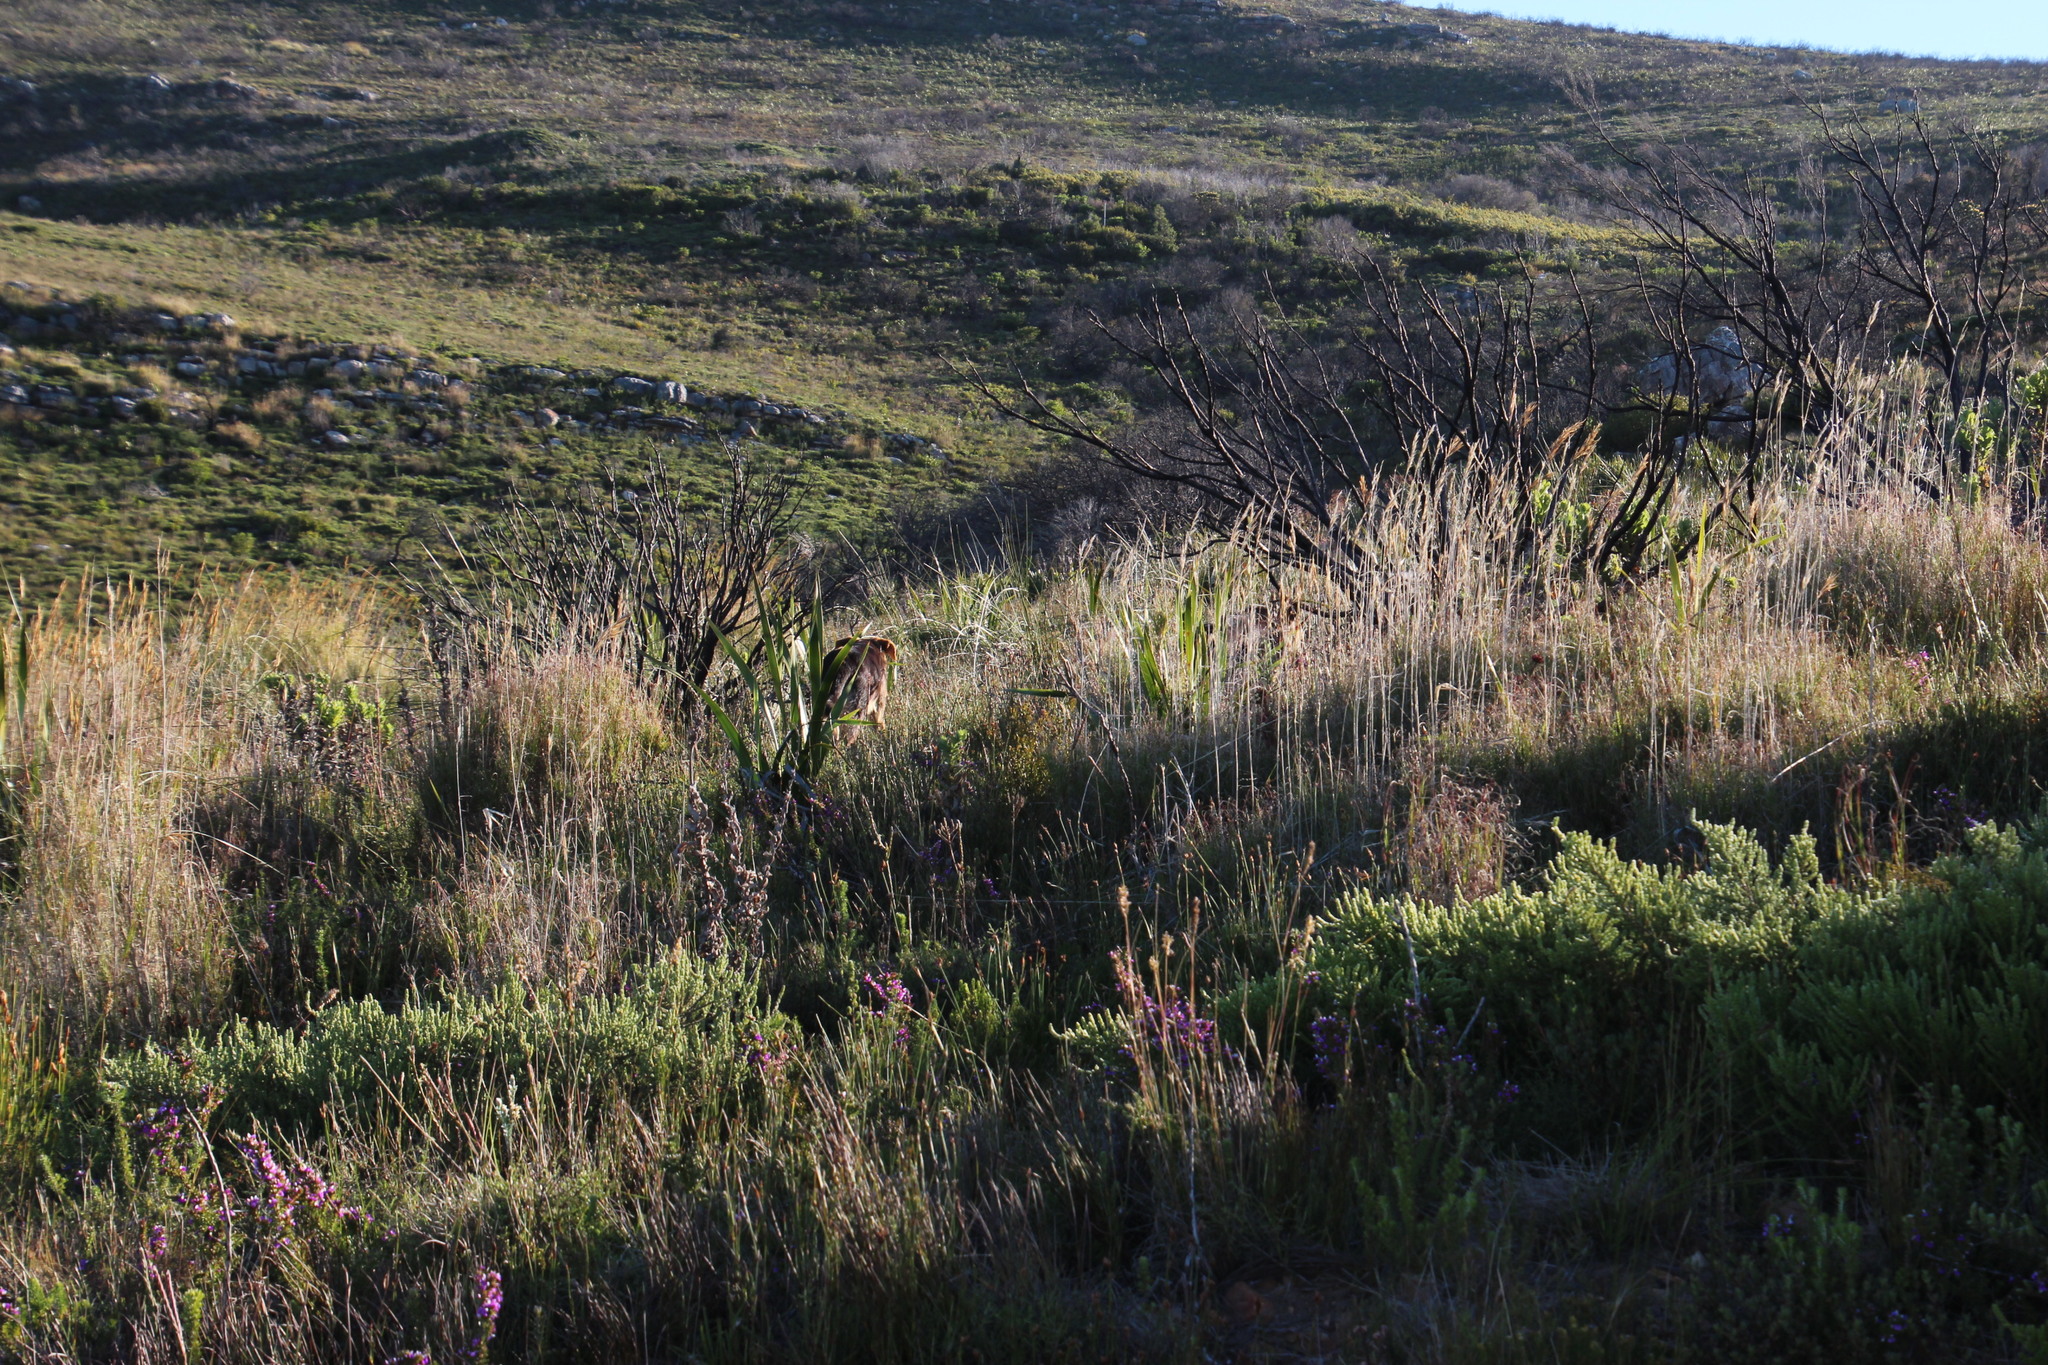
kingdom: Animalia
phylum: Chordata
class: Mammalia
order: Carnivora
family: Canidae
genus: Canis
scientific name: Canis lupus
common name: Gray wolf
